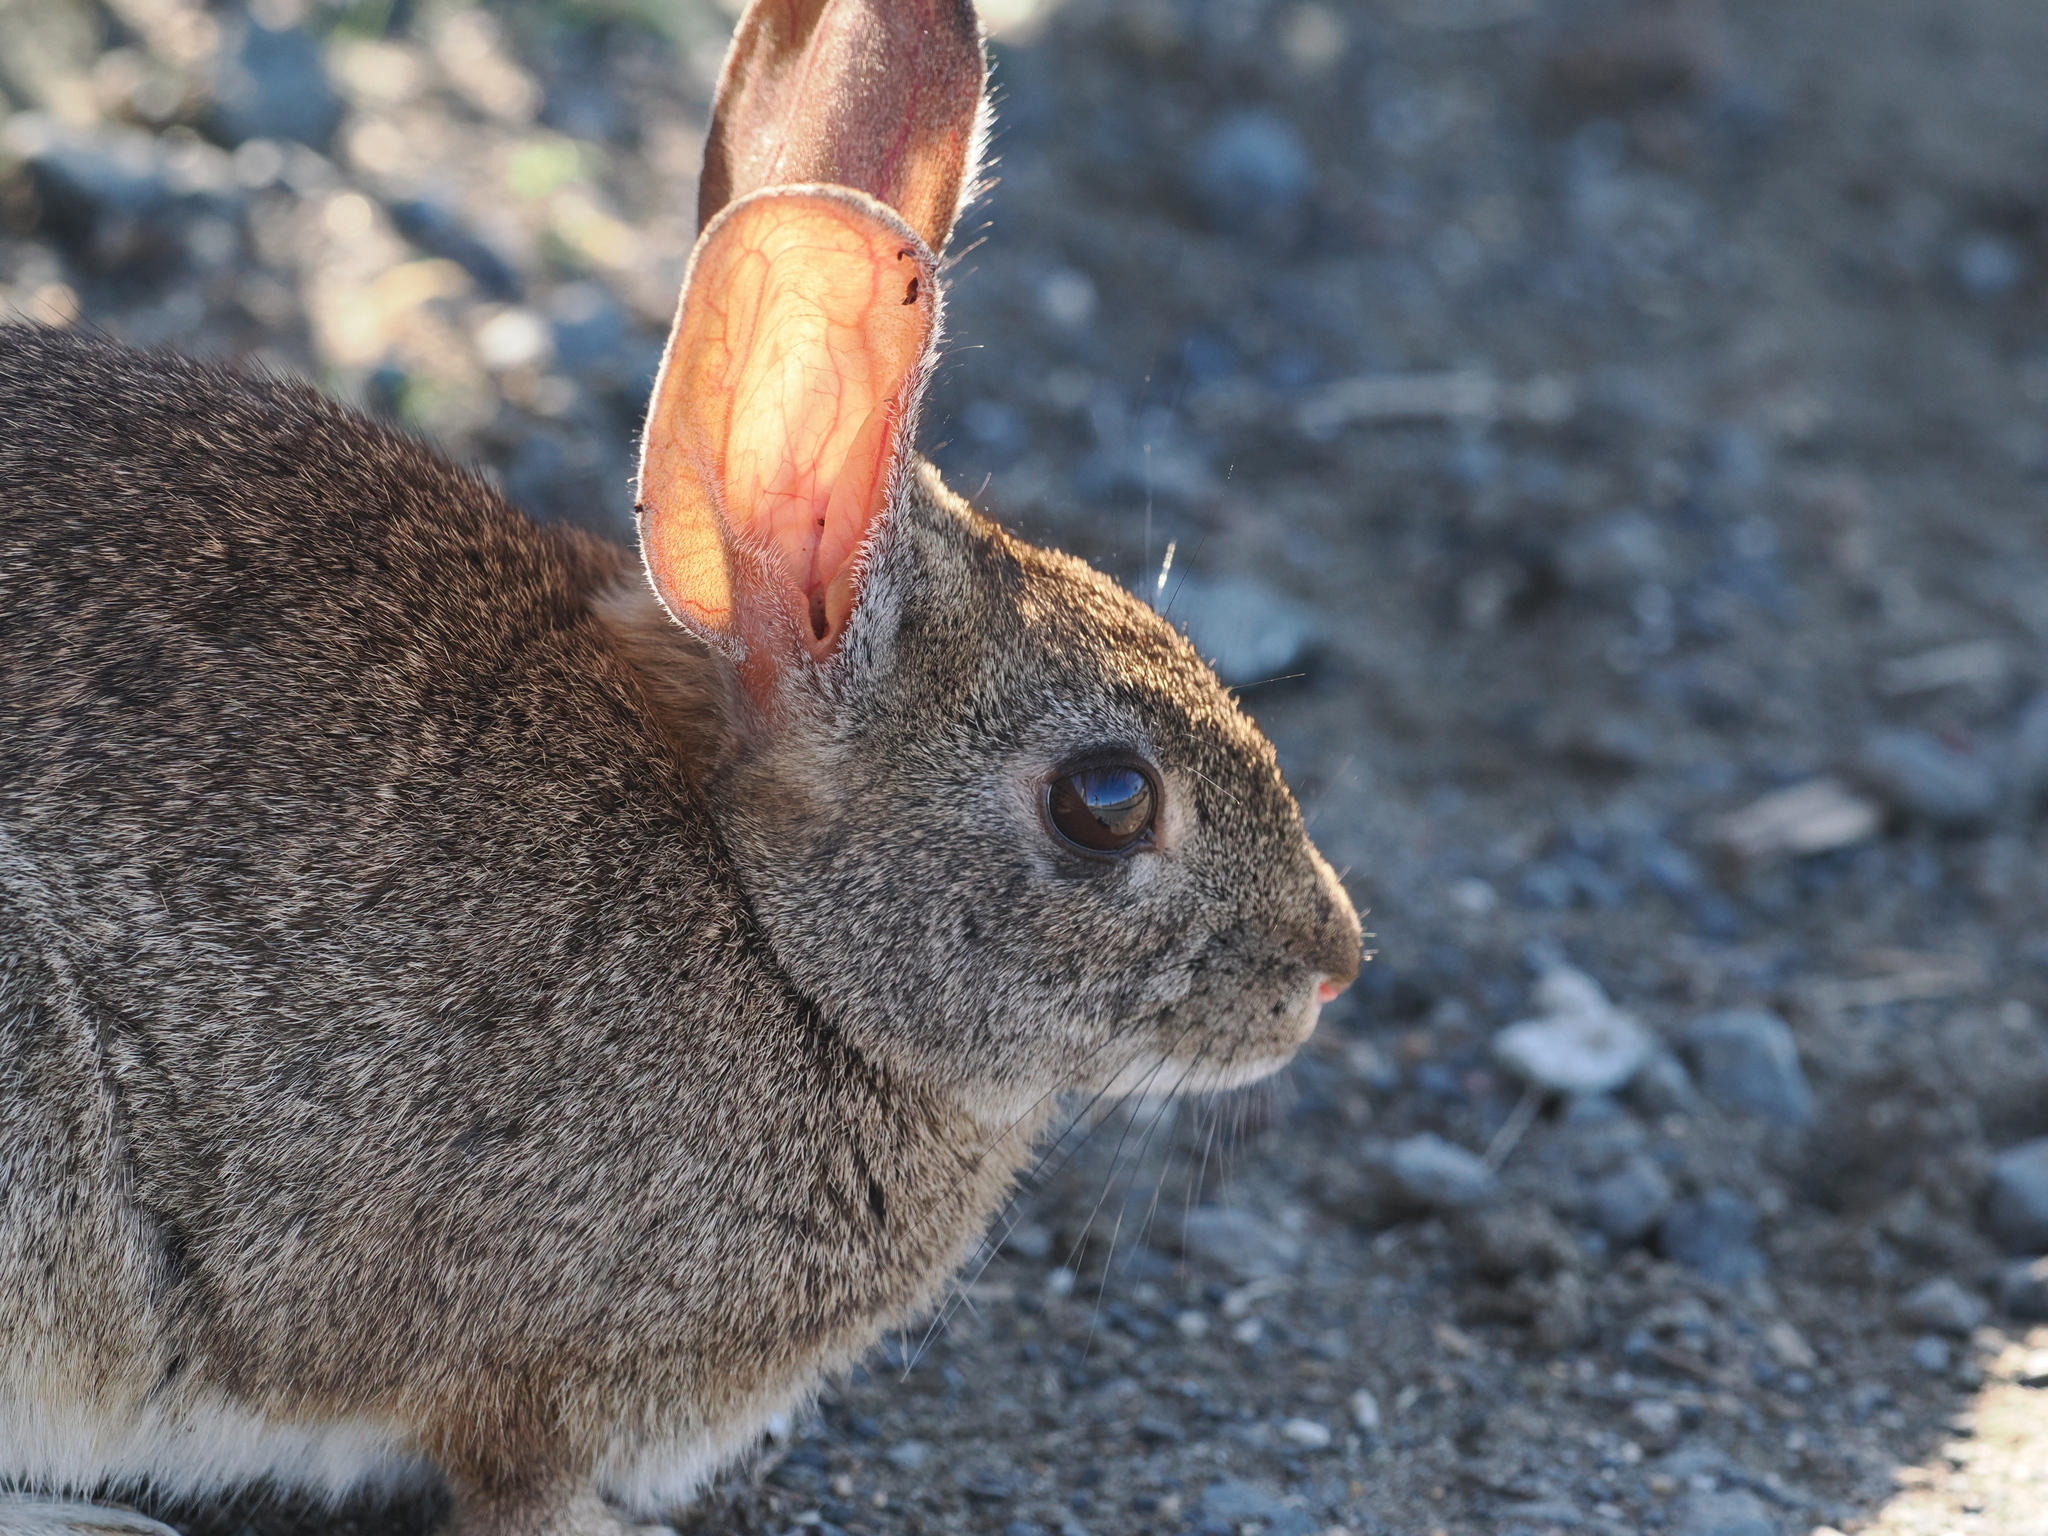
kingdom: Animalia
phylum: Chordata
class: Mammalia
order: Lagomorpha
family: Leporidae
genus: Sylvilagus
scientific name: Sylvilagus bachmani
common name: Brush rabbit
